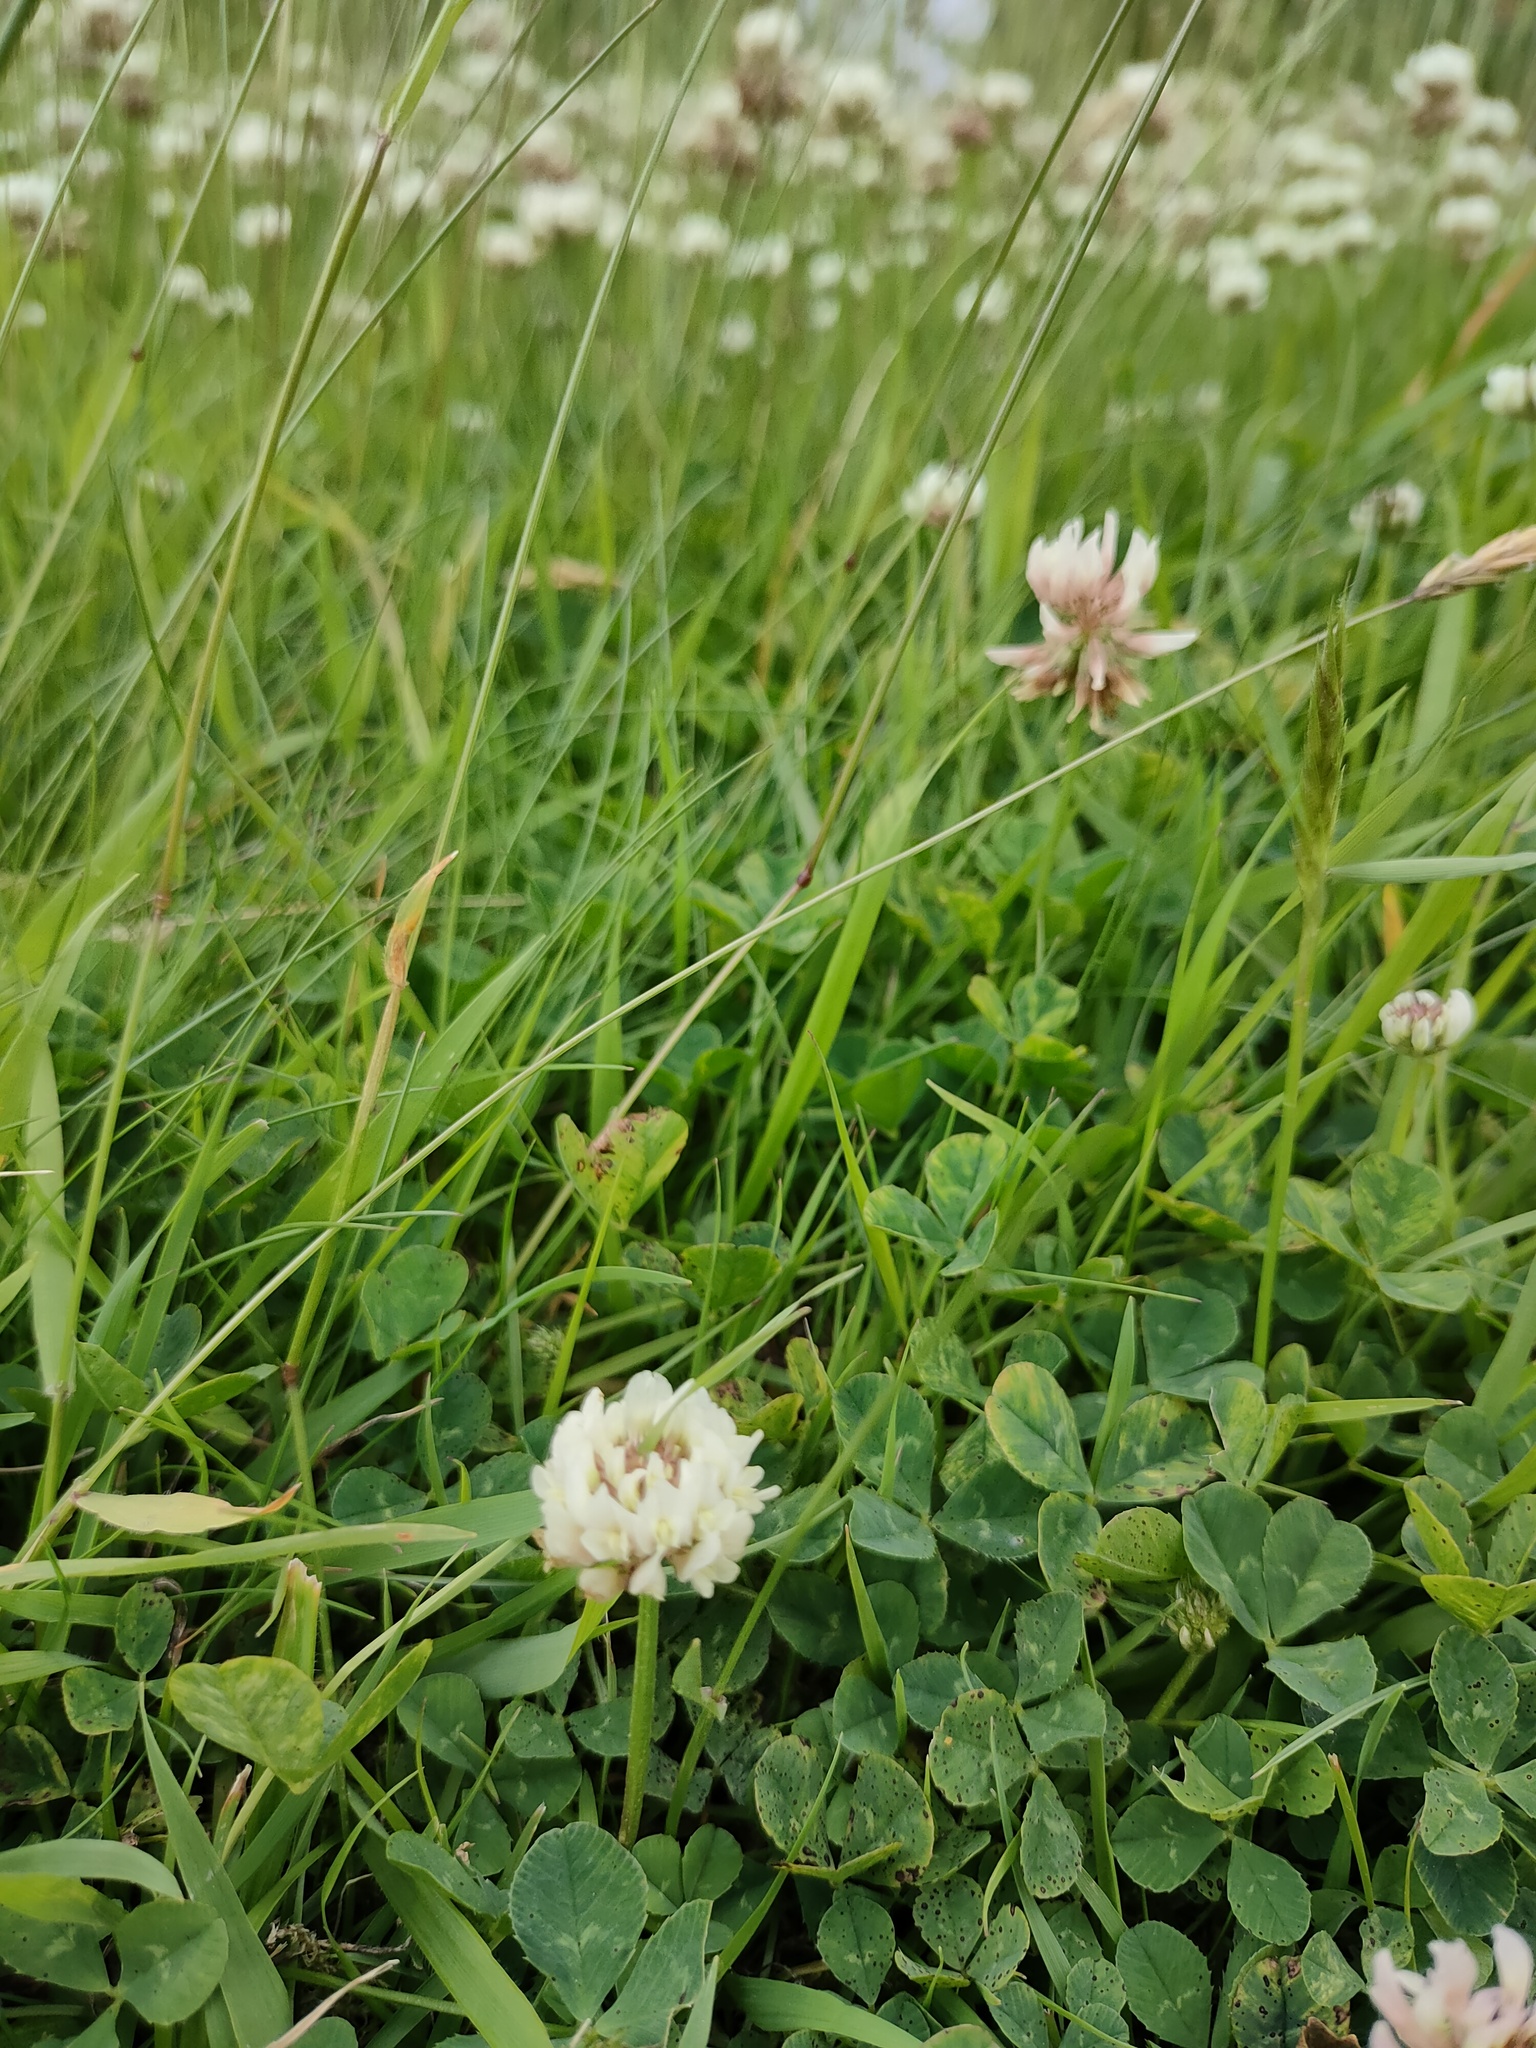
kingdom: Plantae
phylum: Tracheophyta
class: Magnoliopsida
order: Fabales
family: Fabaceae
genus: Trifolium
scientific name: Trifolium repens
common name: White clover
